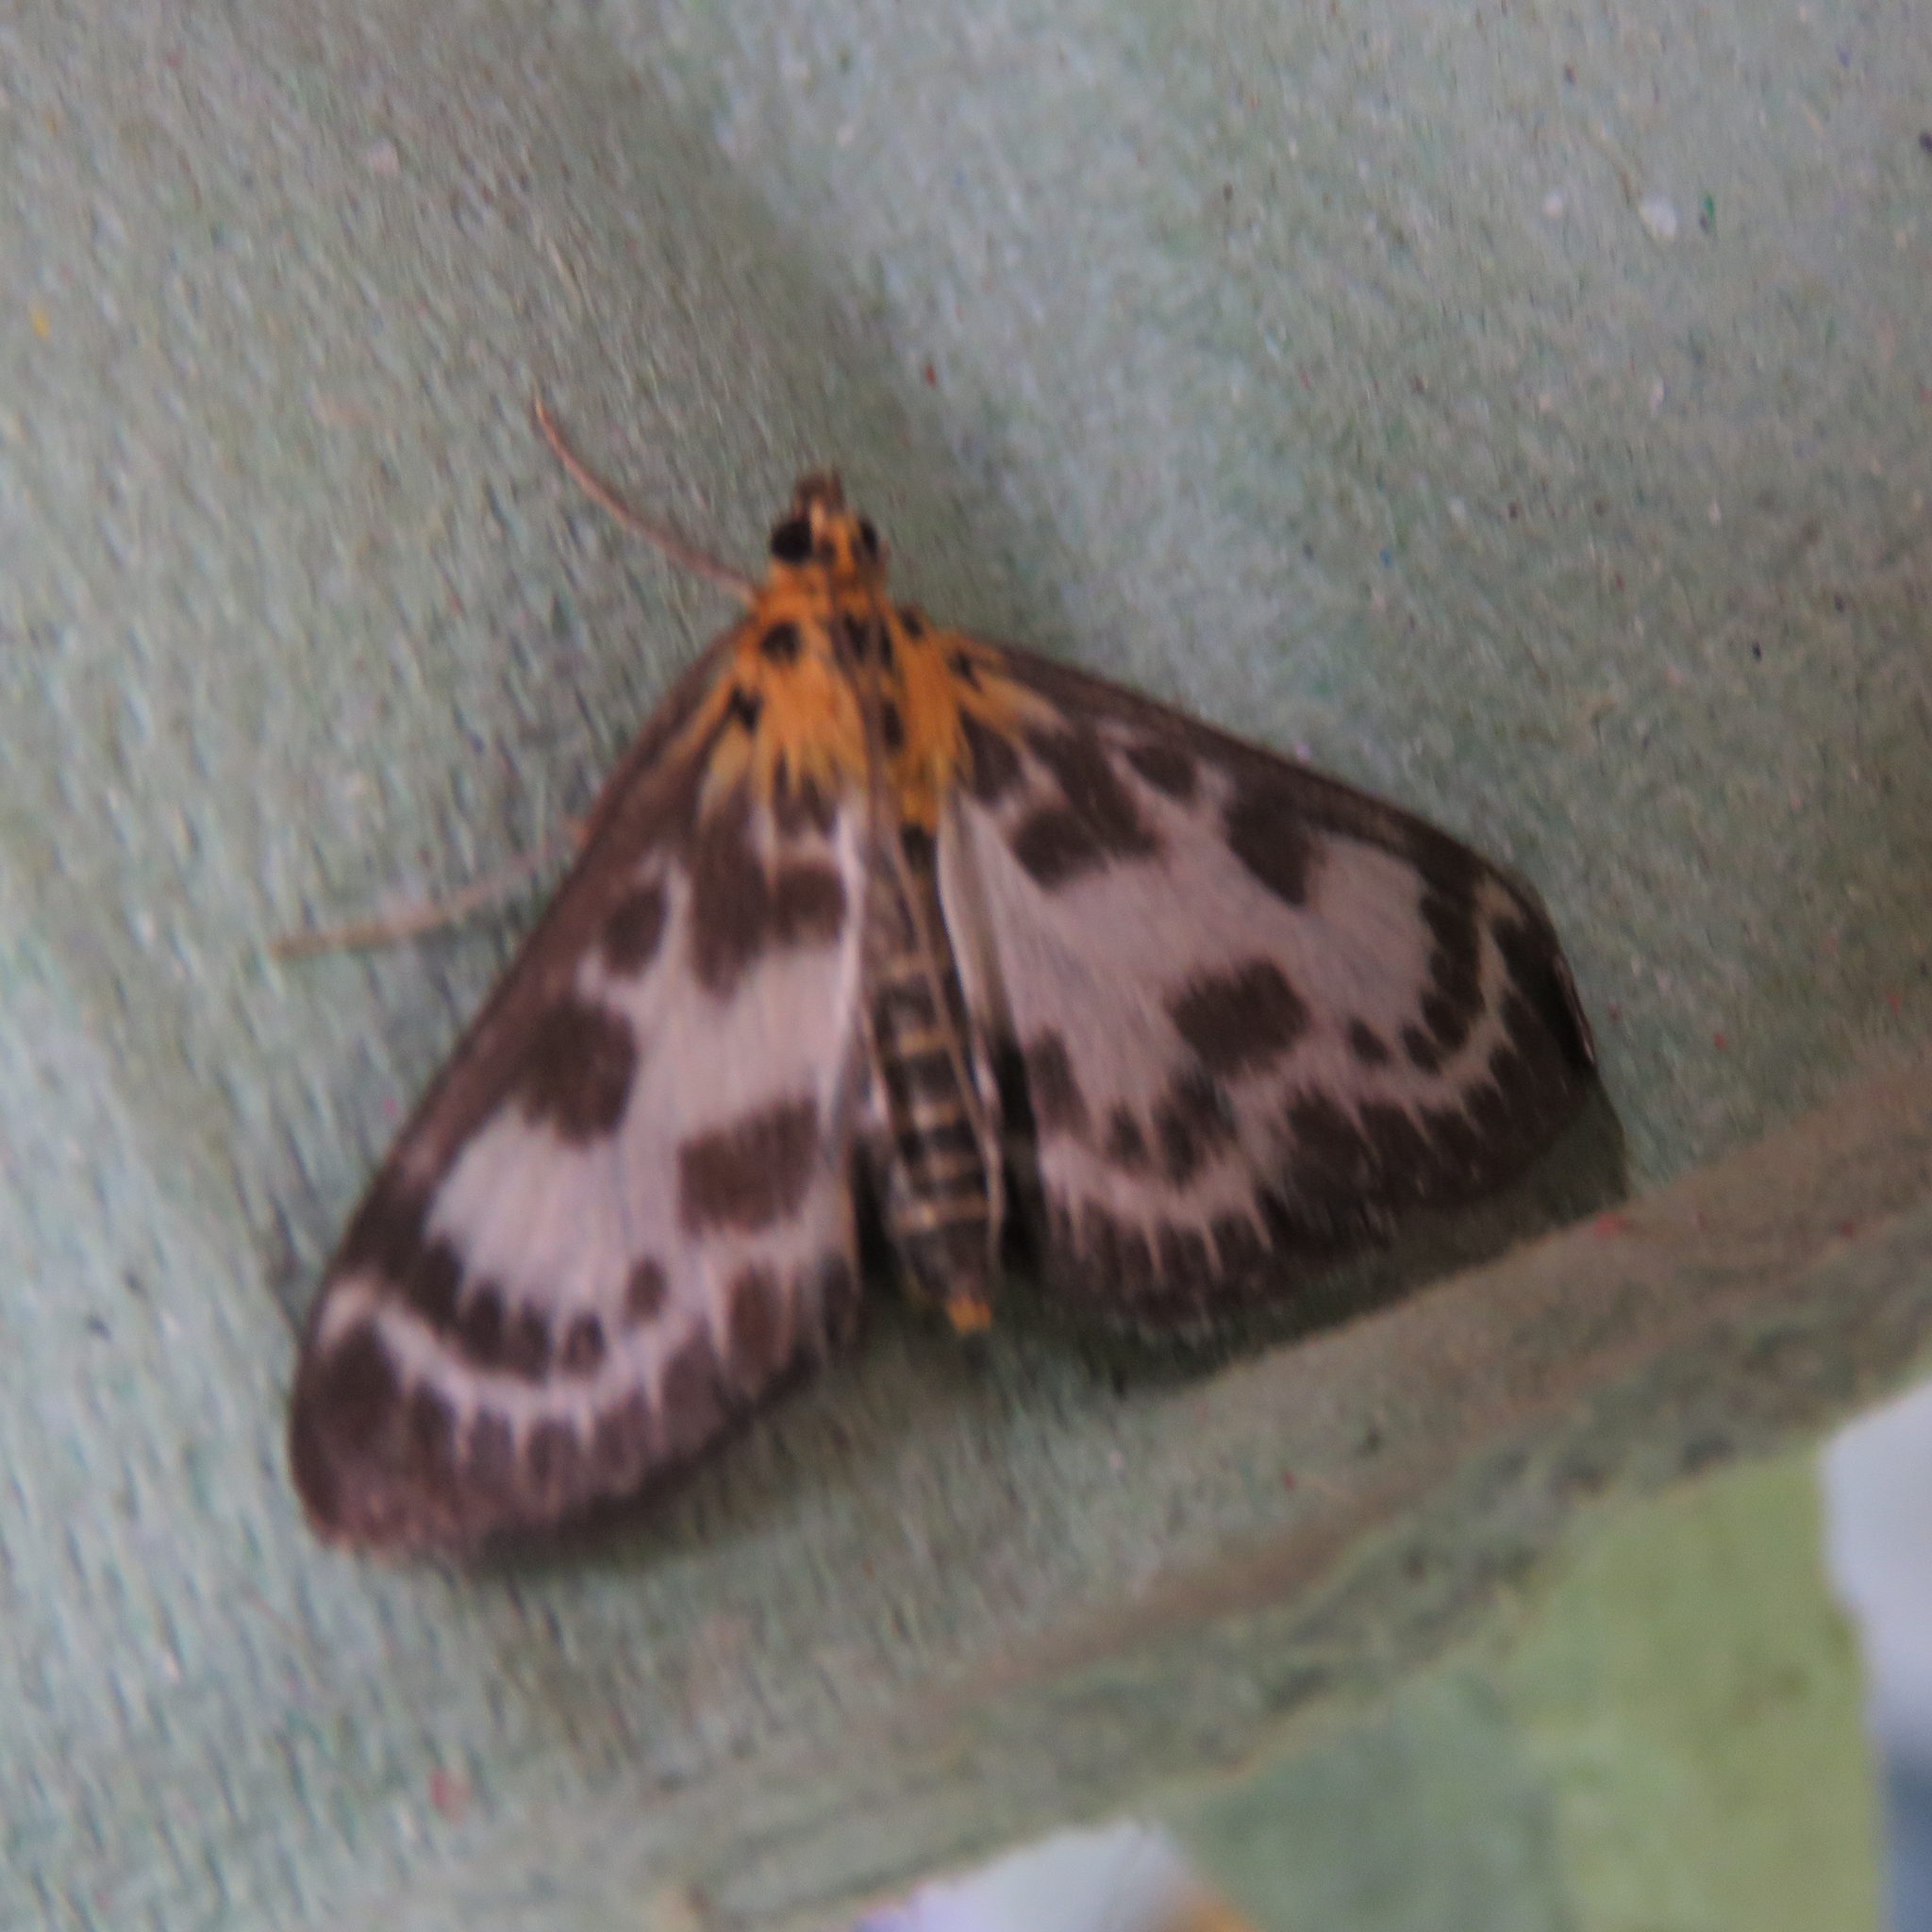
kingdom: Animalia
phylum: Arthropoda
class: Insecta
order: Lepidoptera
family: Crambidae
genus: Anania
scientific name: Anania hortulata
